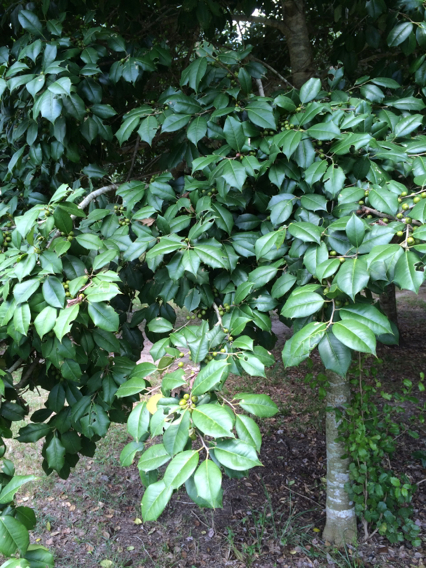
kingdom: Plantae
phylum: Tracheophyta
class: Magnoliopsida
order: Aquifoliales
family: Aquifoliaceae
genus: Ilex
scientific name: Ilex opaca
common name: American holly
